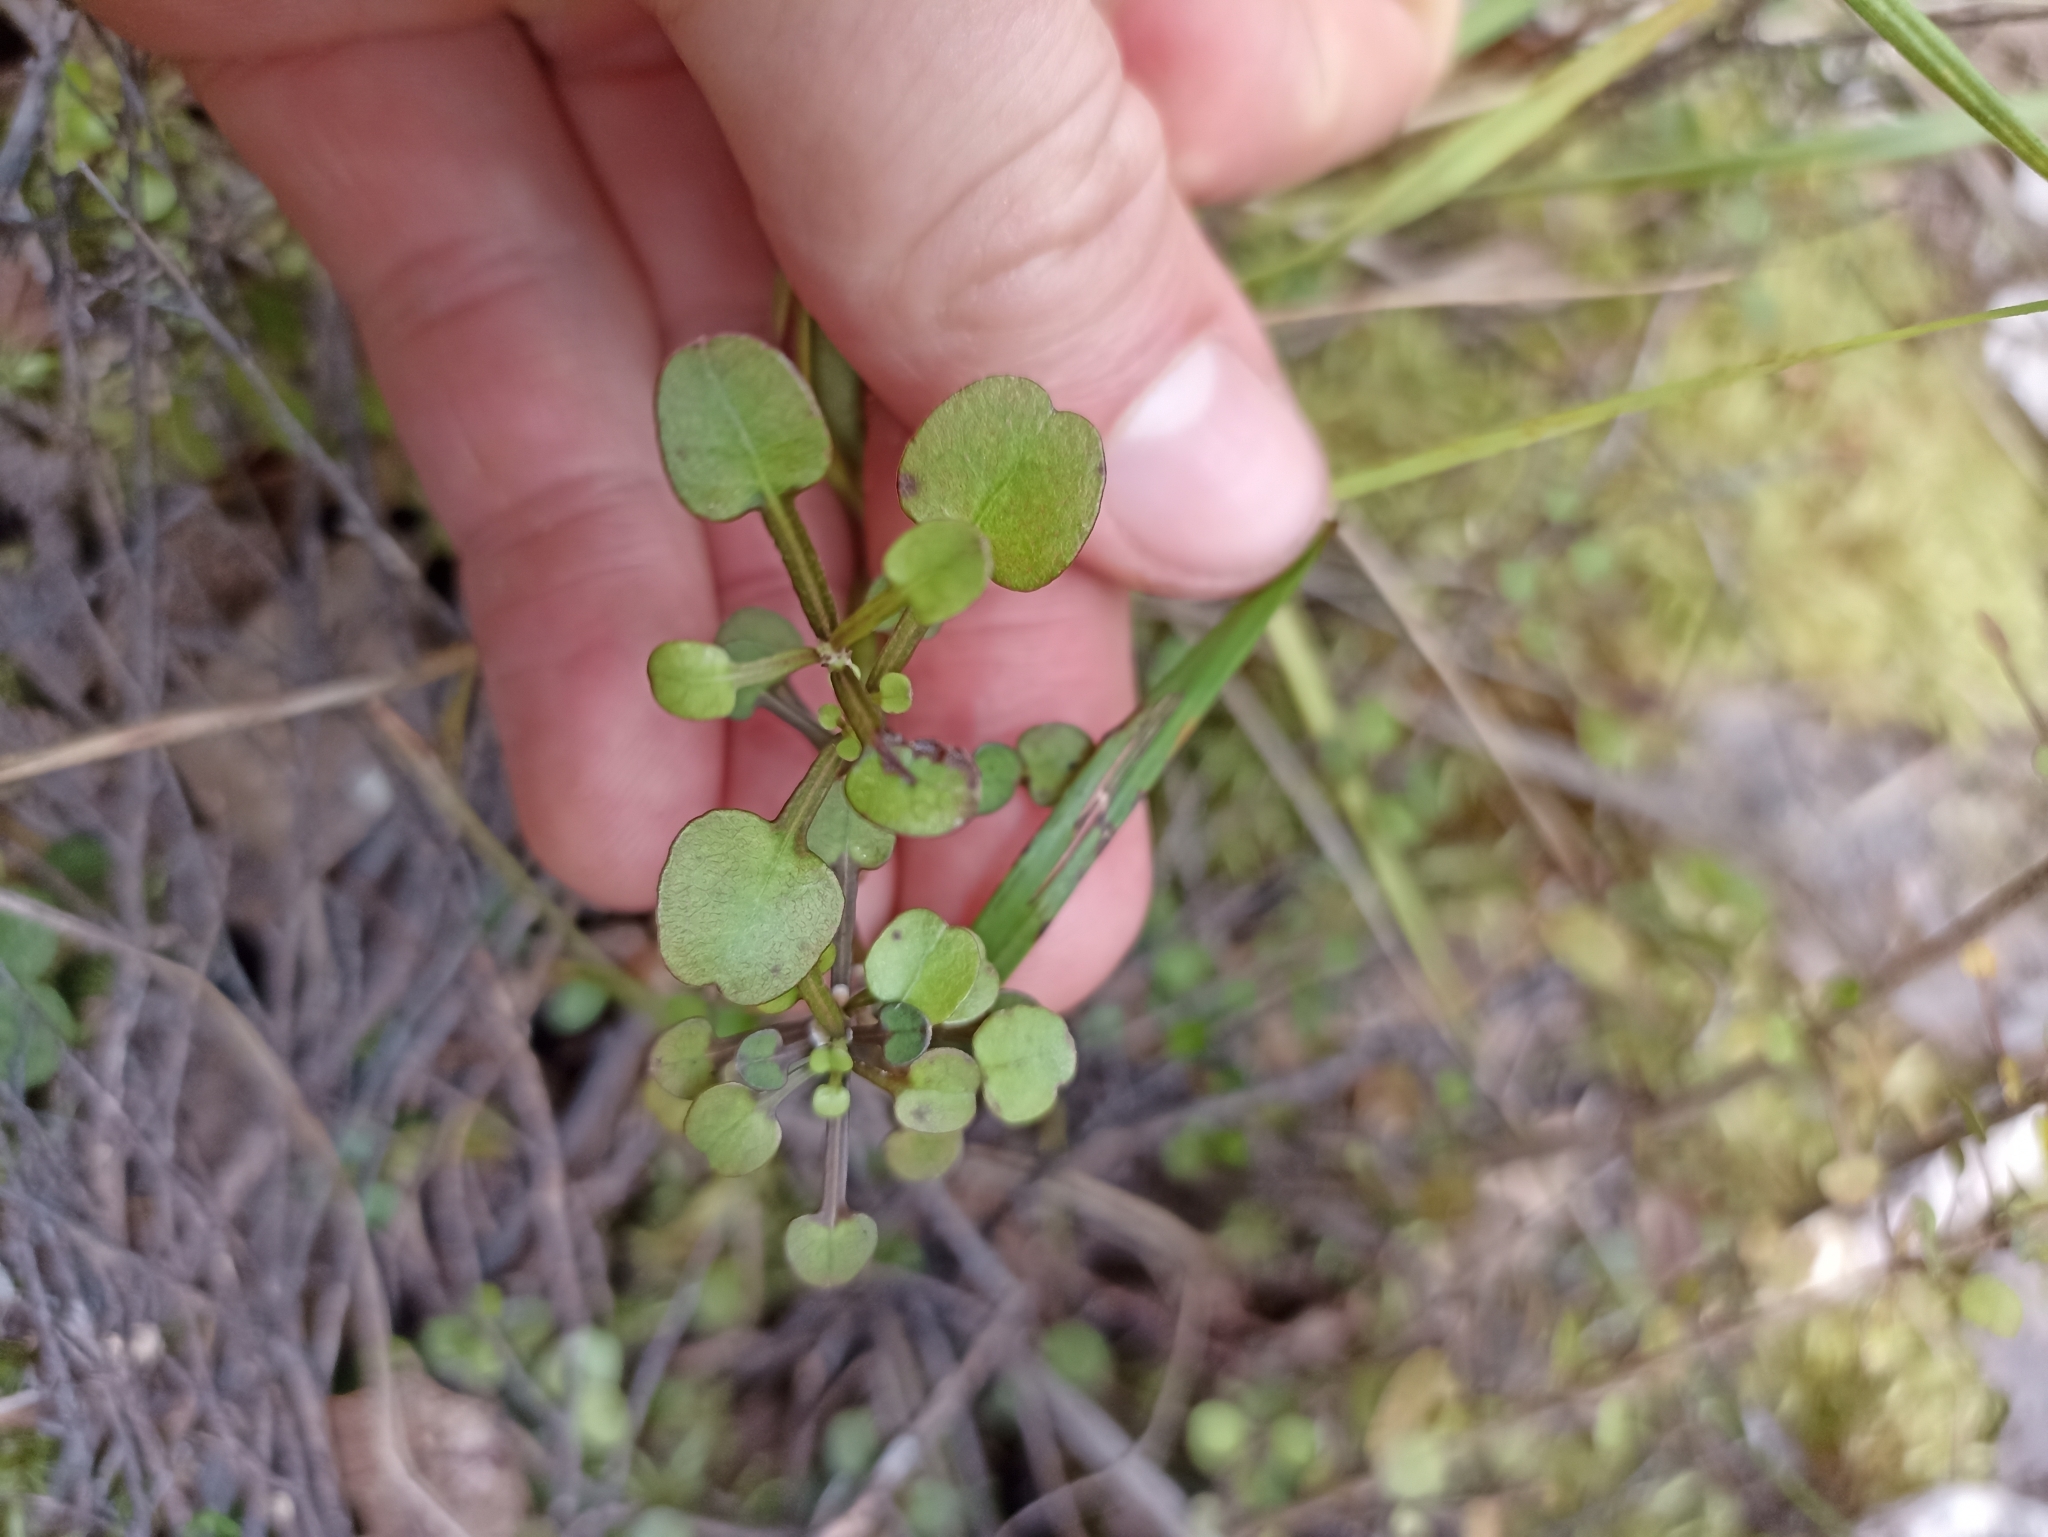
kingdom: Plantae
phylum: Tracheophyta
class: Magnoliopsida
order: Gentianales
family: Rubiaceae
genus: Coprosma
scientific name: Coprosma spathulata
